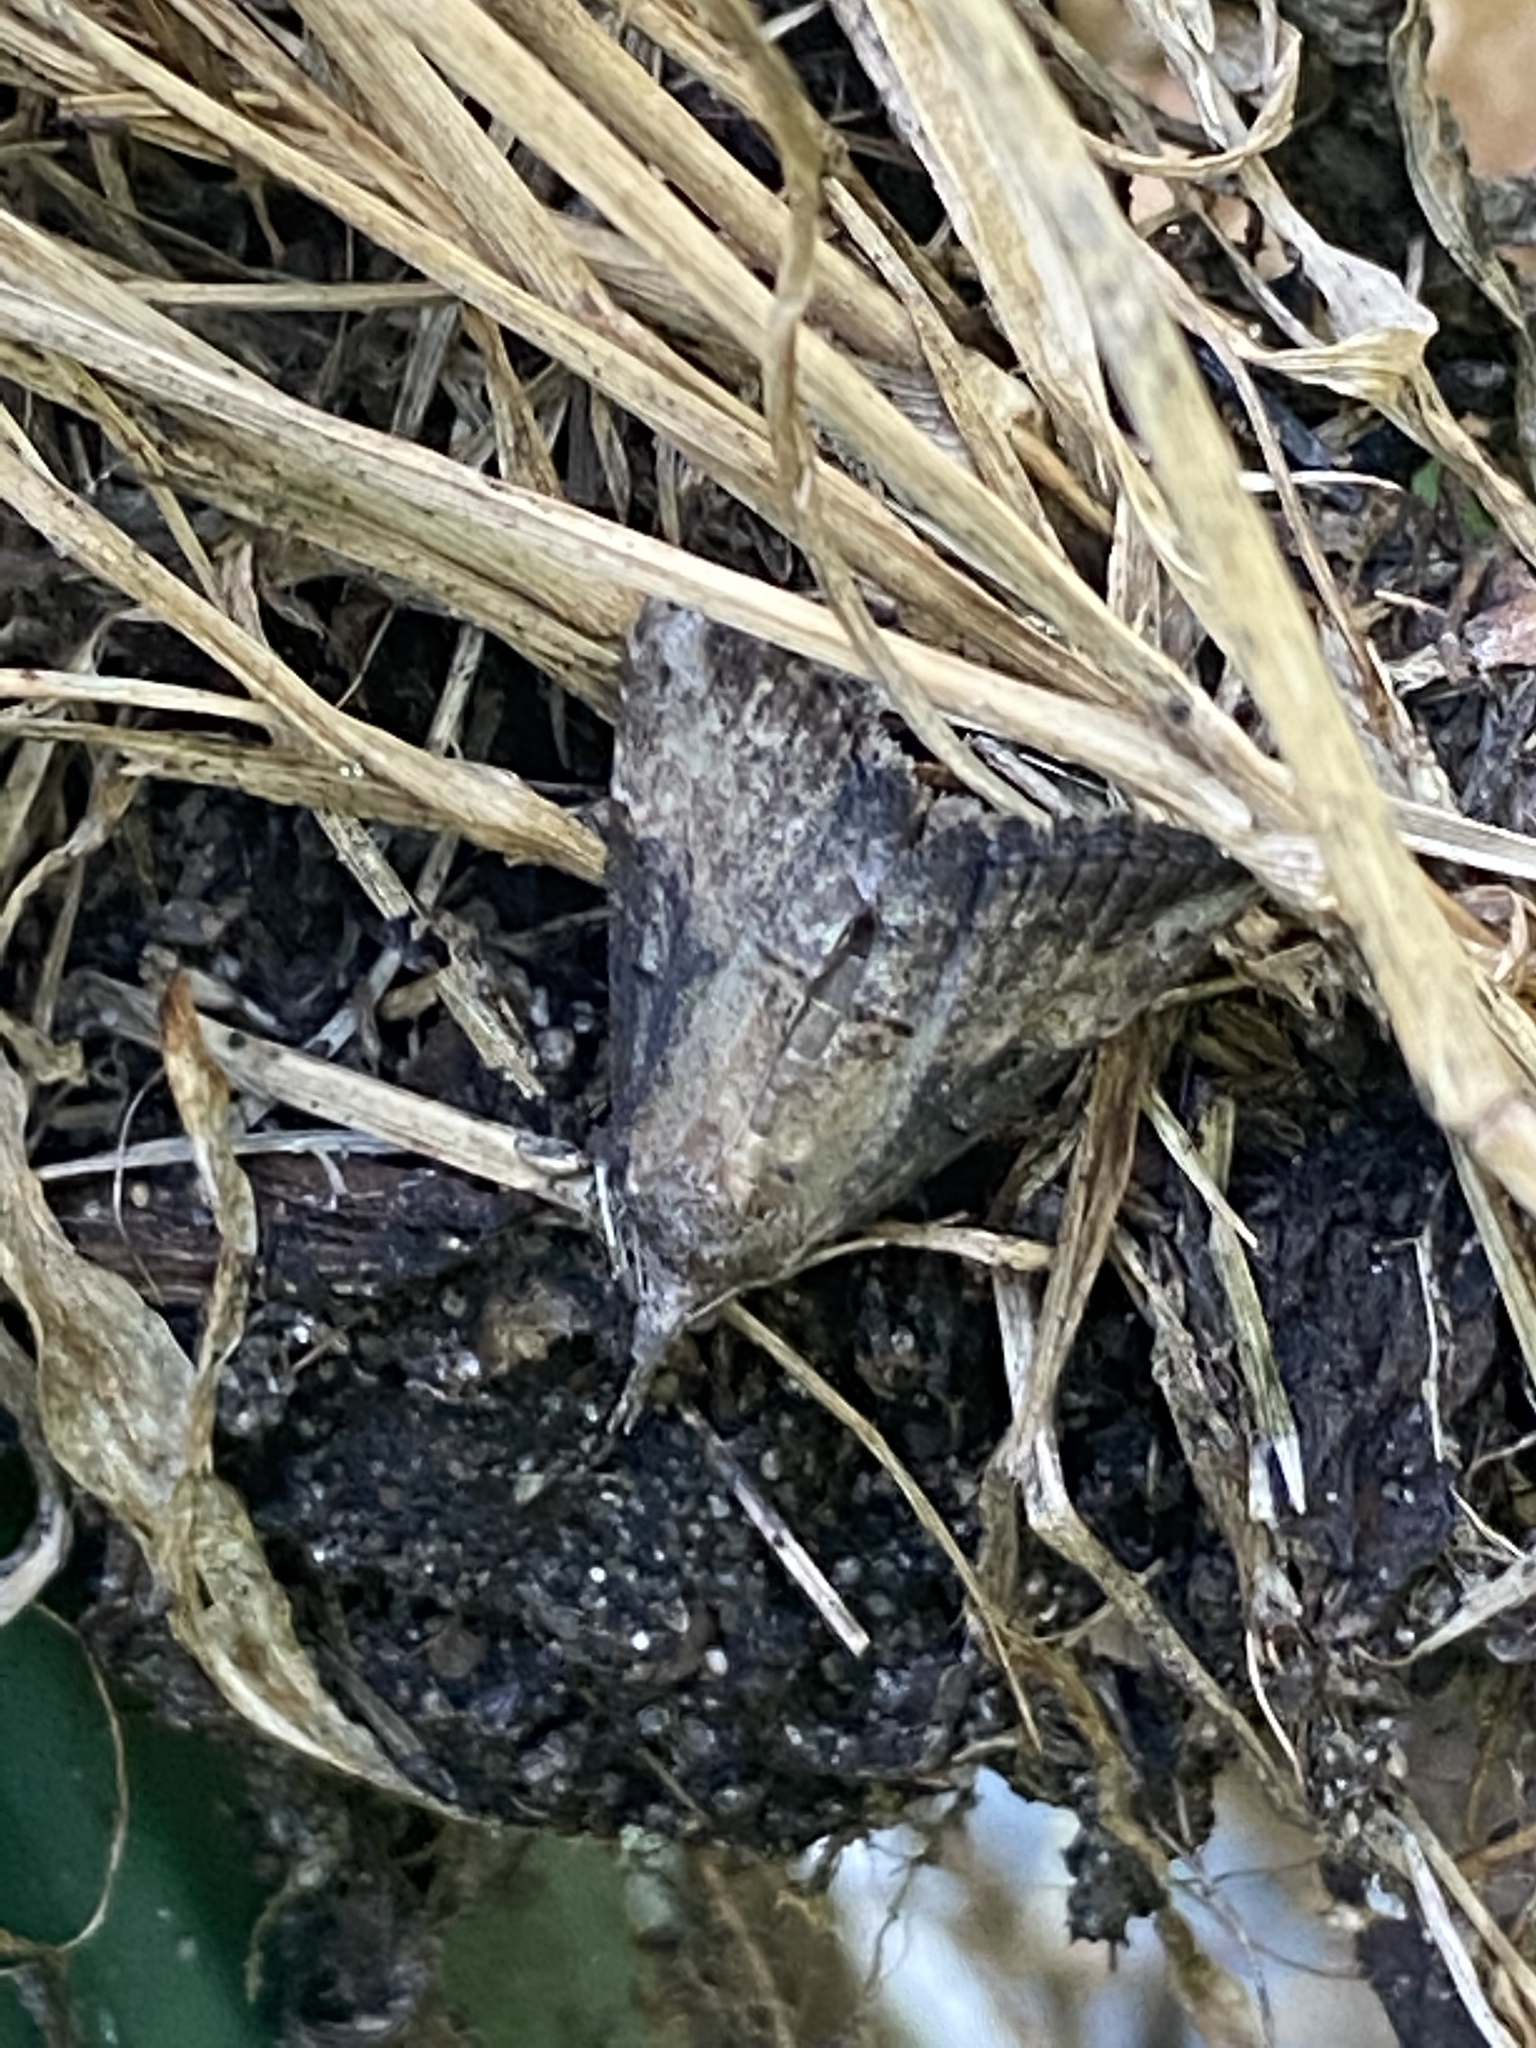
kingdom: Animalia
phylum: Arthropoda
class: Insecta
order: Lepidoptera
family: Erebidae
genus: Hypena
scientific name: Hypena scabra
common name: Green cloverworm
